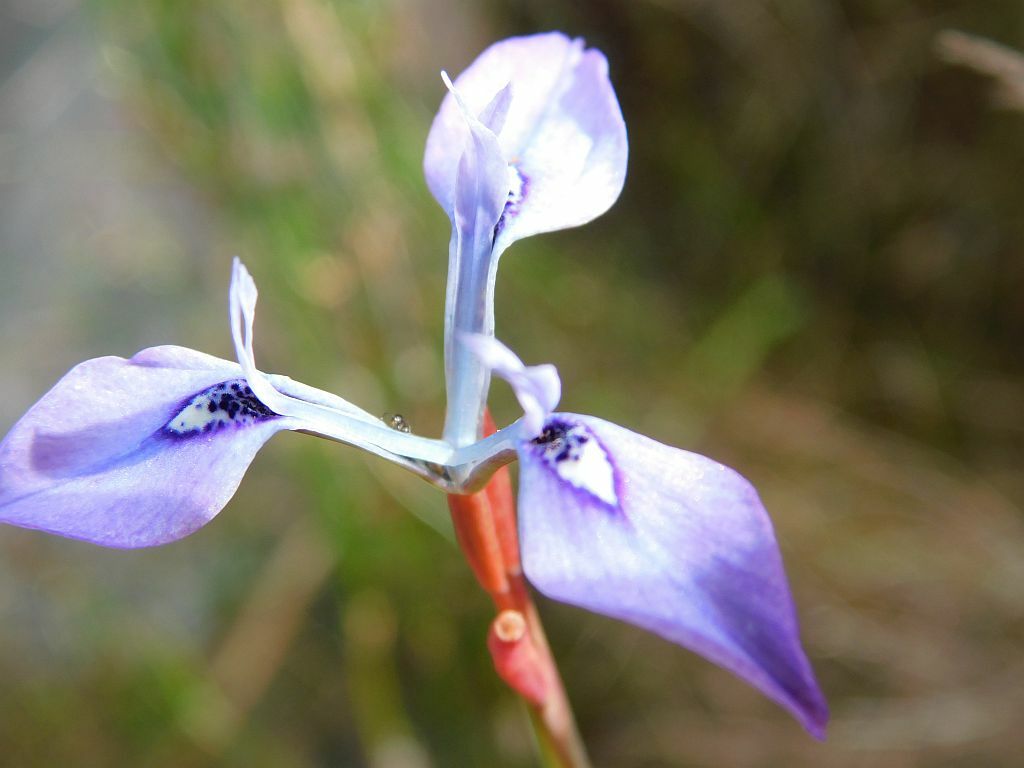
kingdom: Plantae
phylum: Tracheophyta
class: Liliopsida
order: Asparagales
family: Iridaceae
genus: Moraea
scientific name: Moraea tripetala
